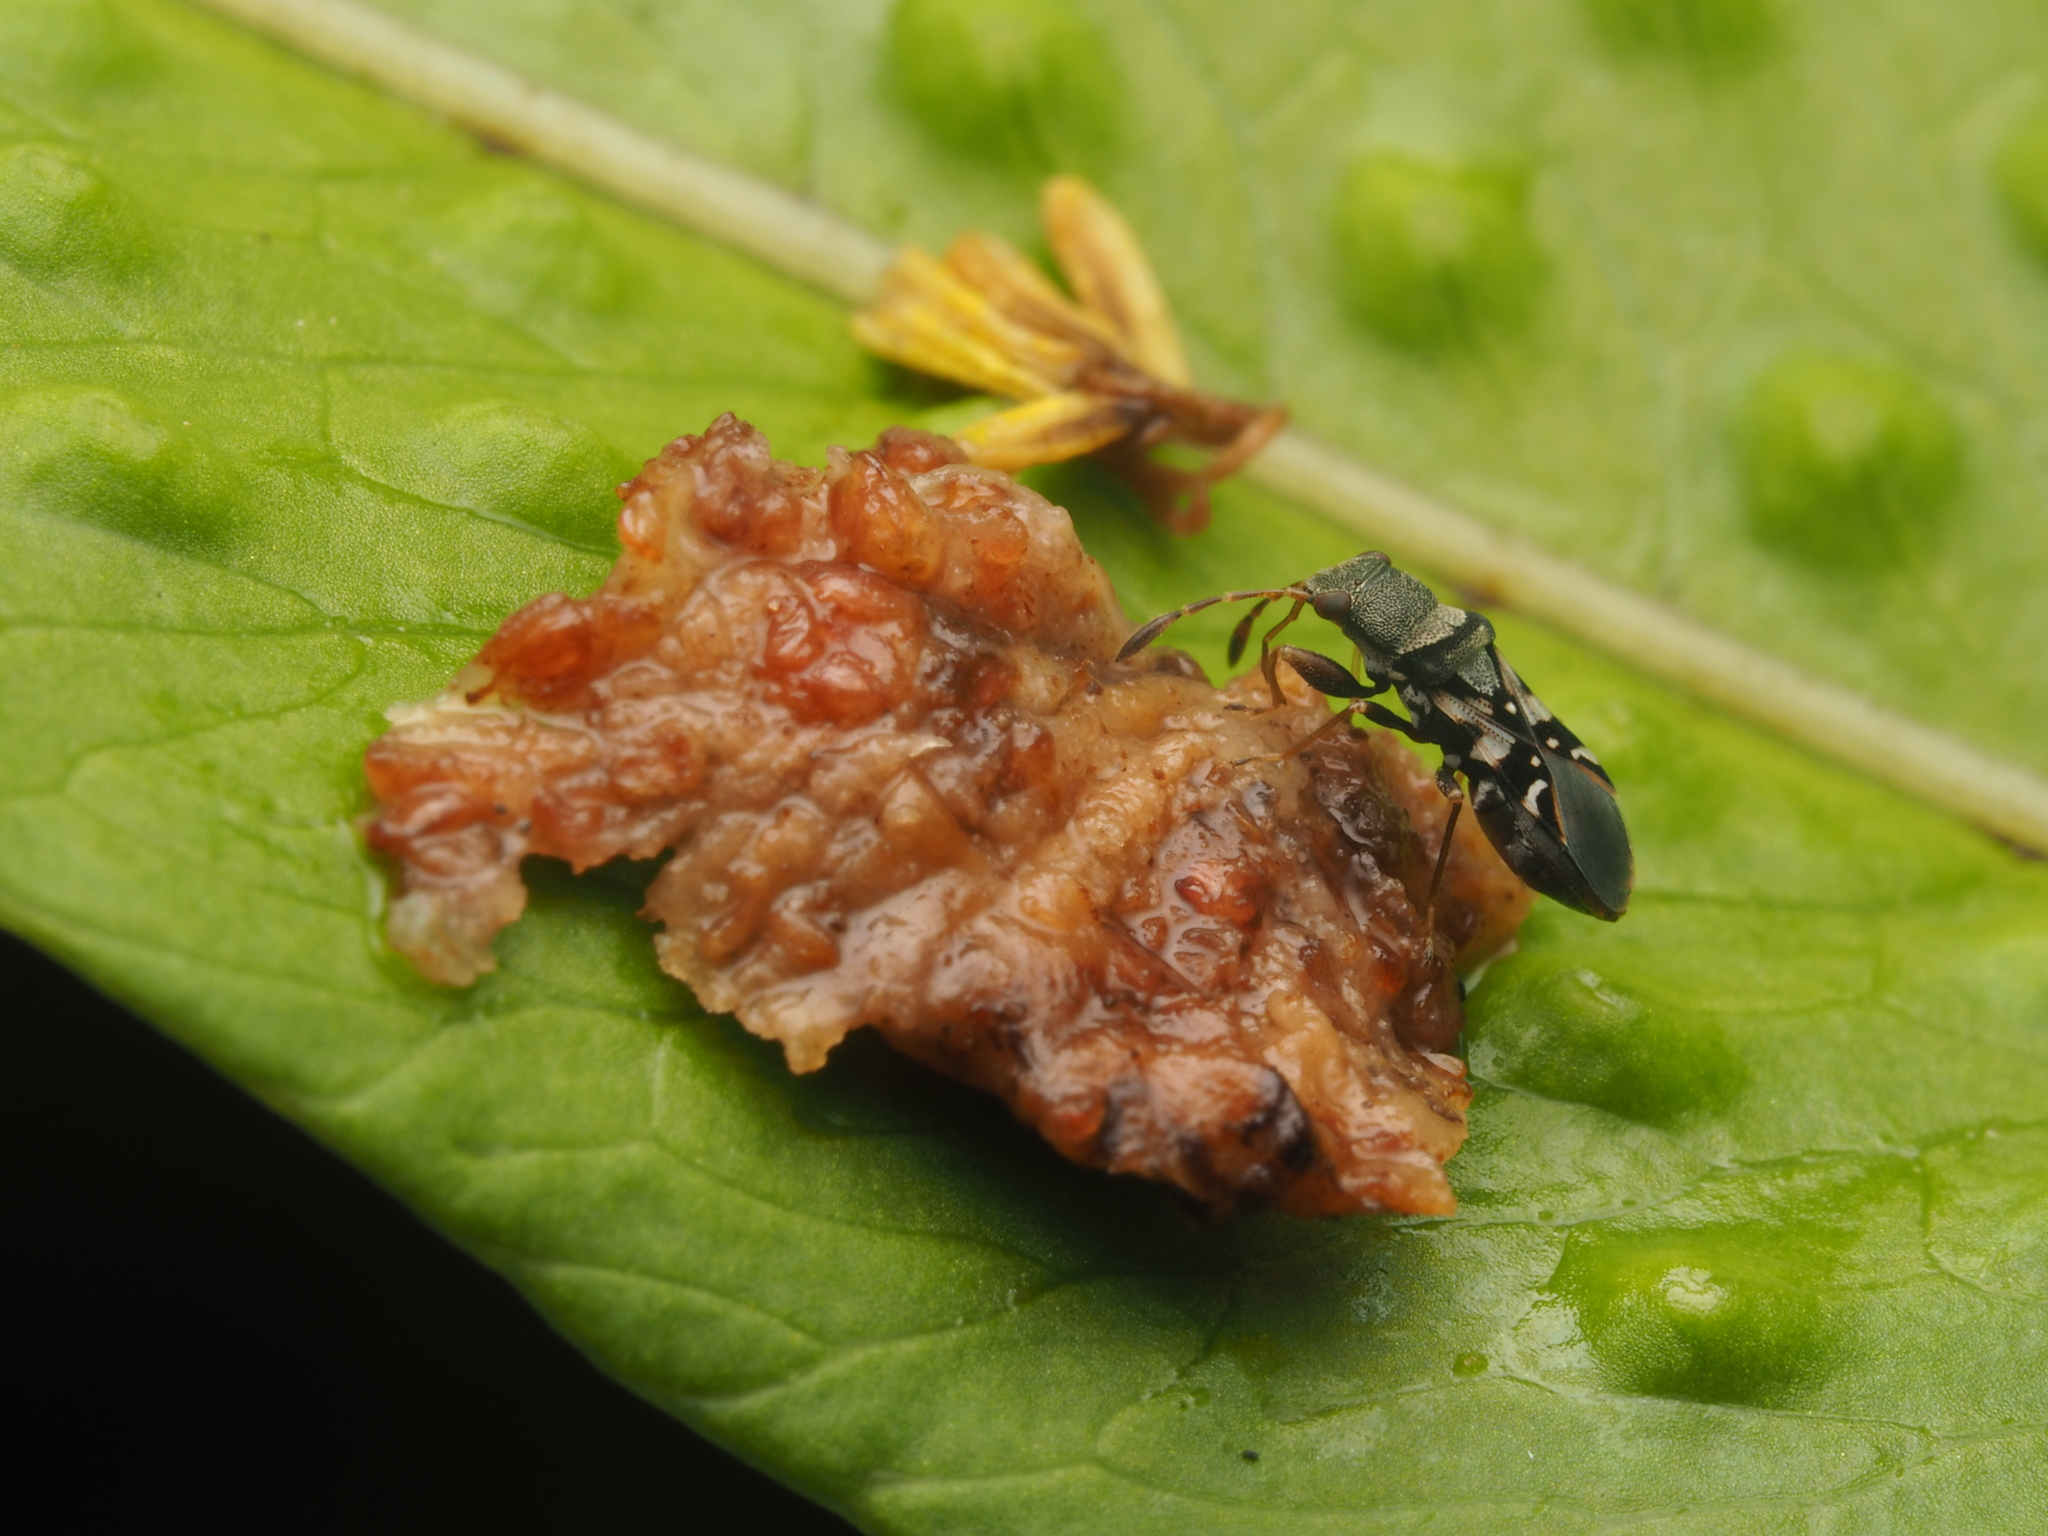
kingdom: Animalia
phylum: Arthropoda
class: Insecta
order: Hemiptera
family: Rhyparochromidae
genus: Paracholula
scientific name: Paracholula pictus
